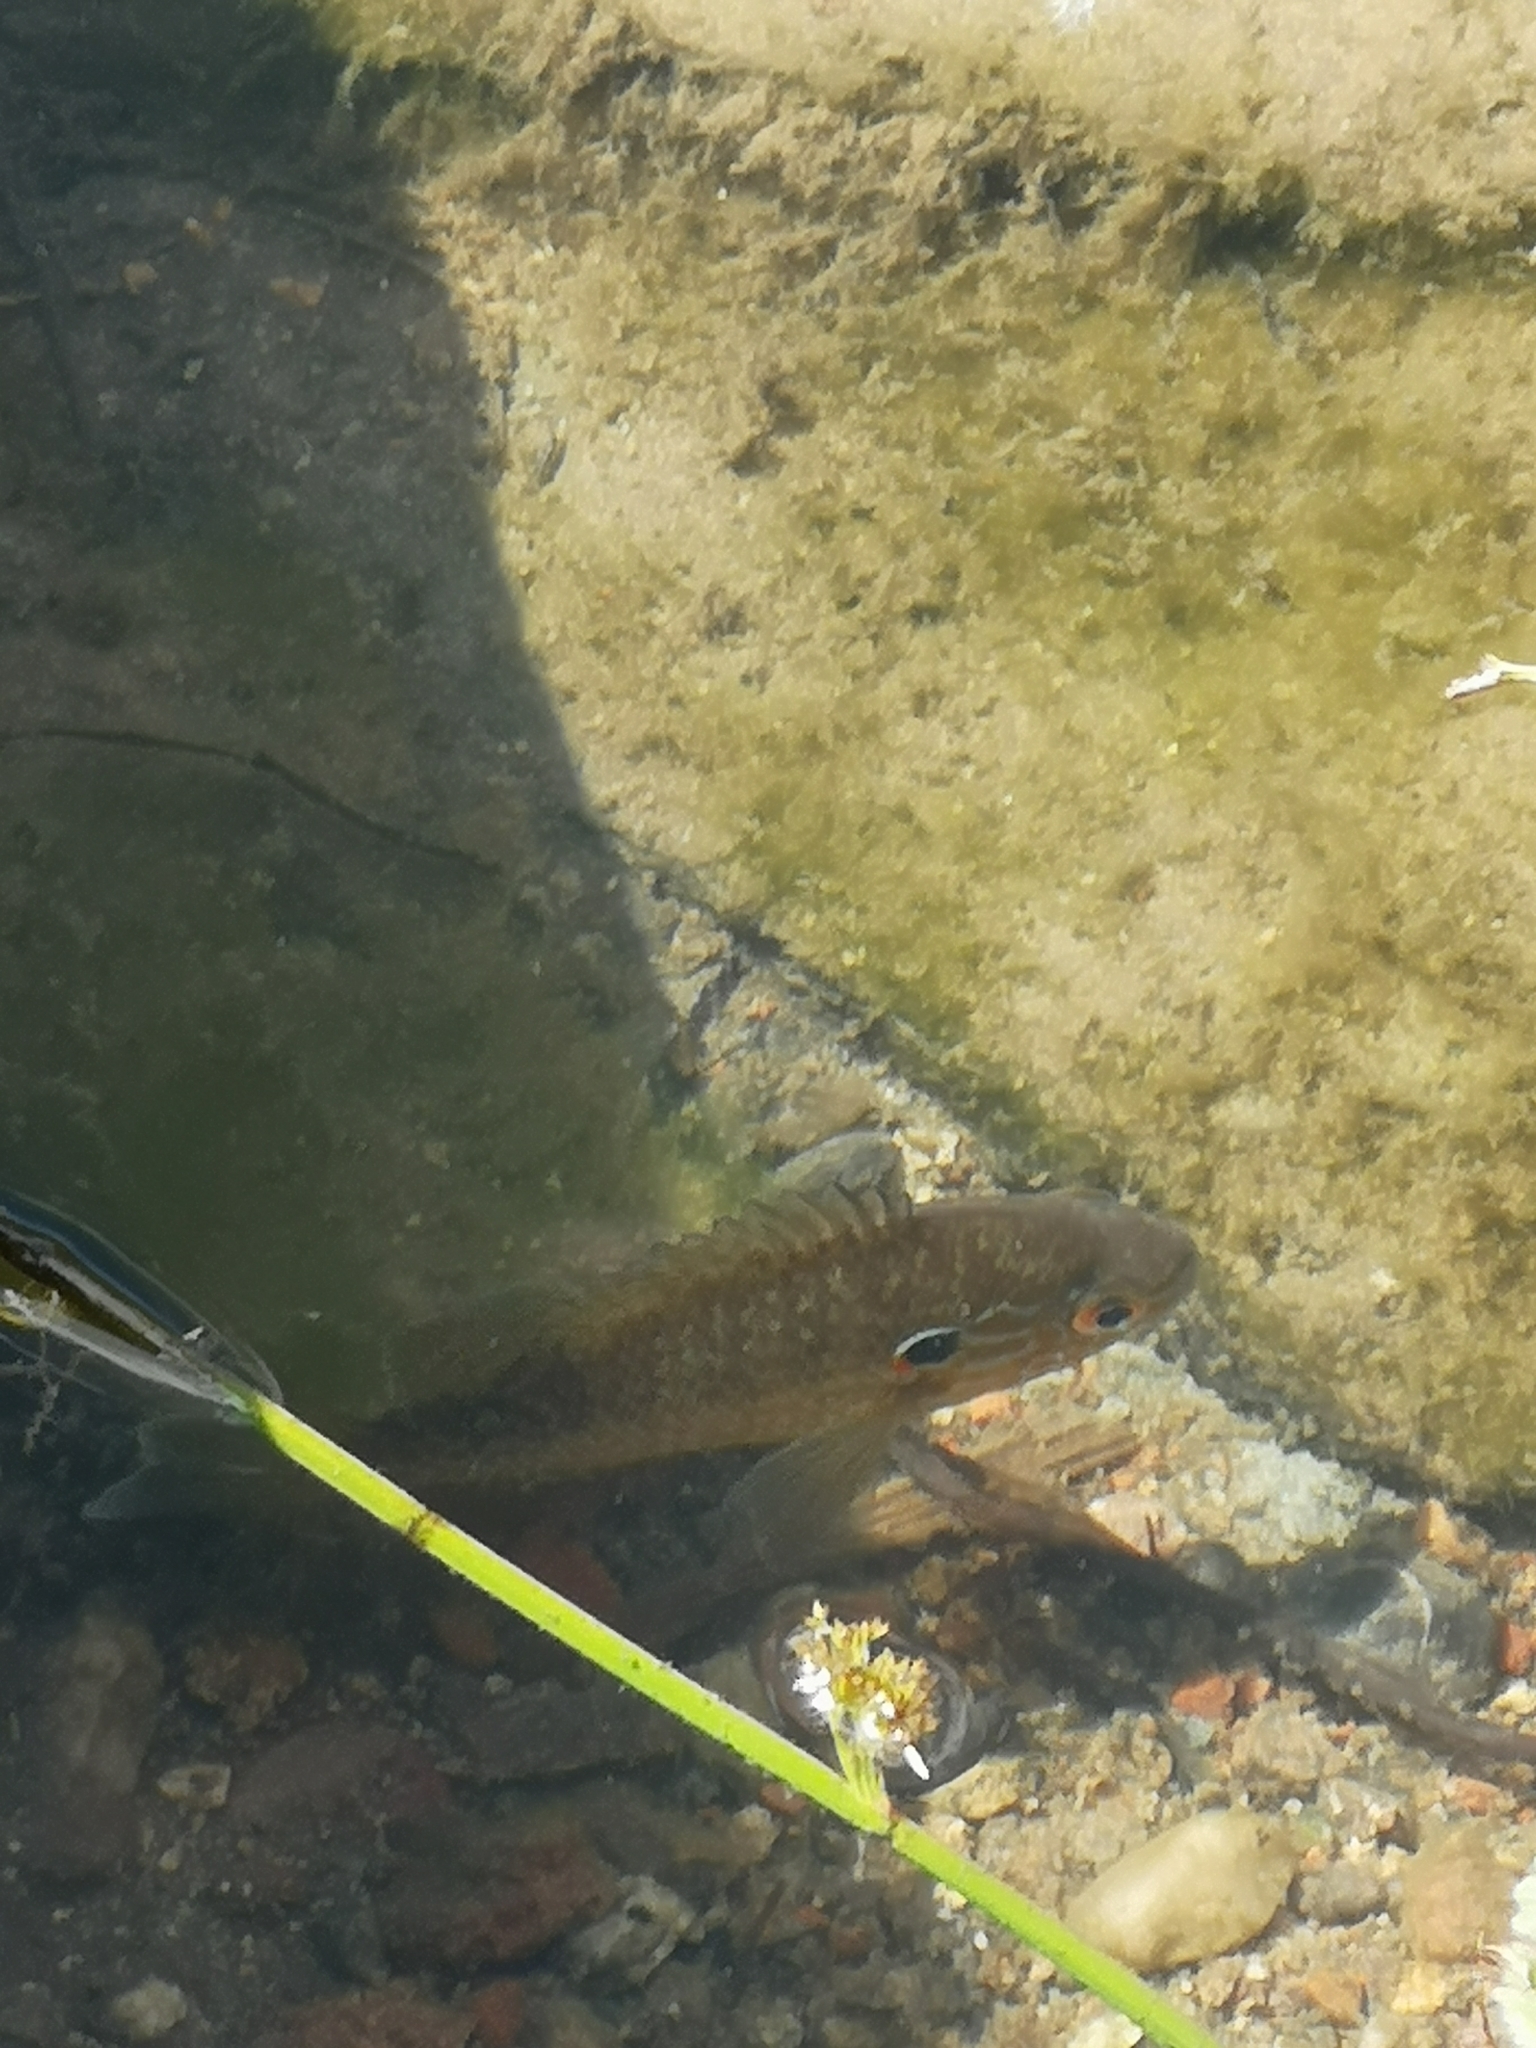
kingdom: Animalia
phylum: Chordata
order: Perciformes
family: Centrarchidae
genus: Lepomis
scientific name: Lepomis gibbosus
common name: Pumpkinseed
